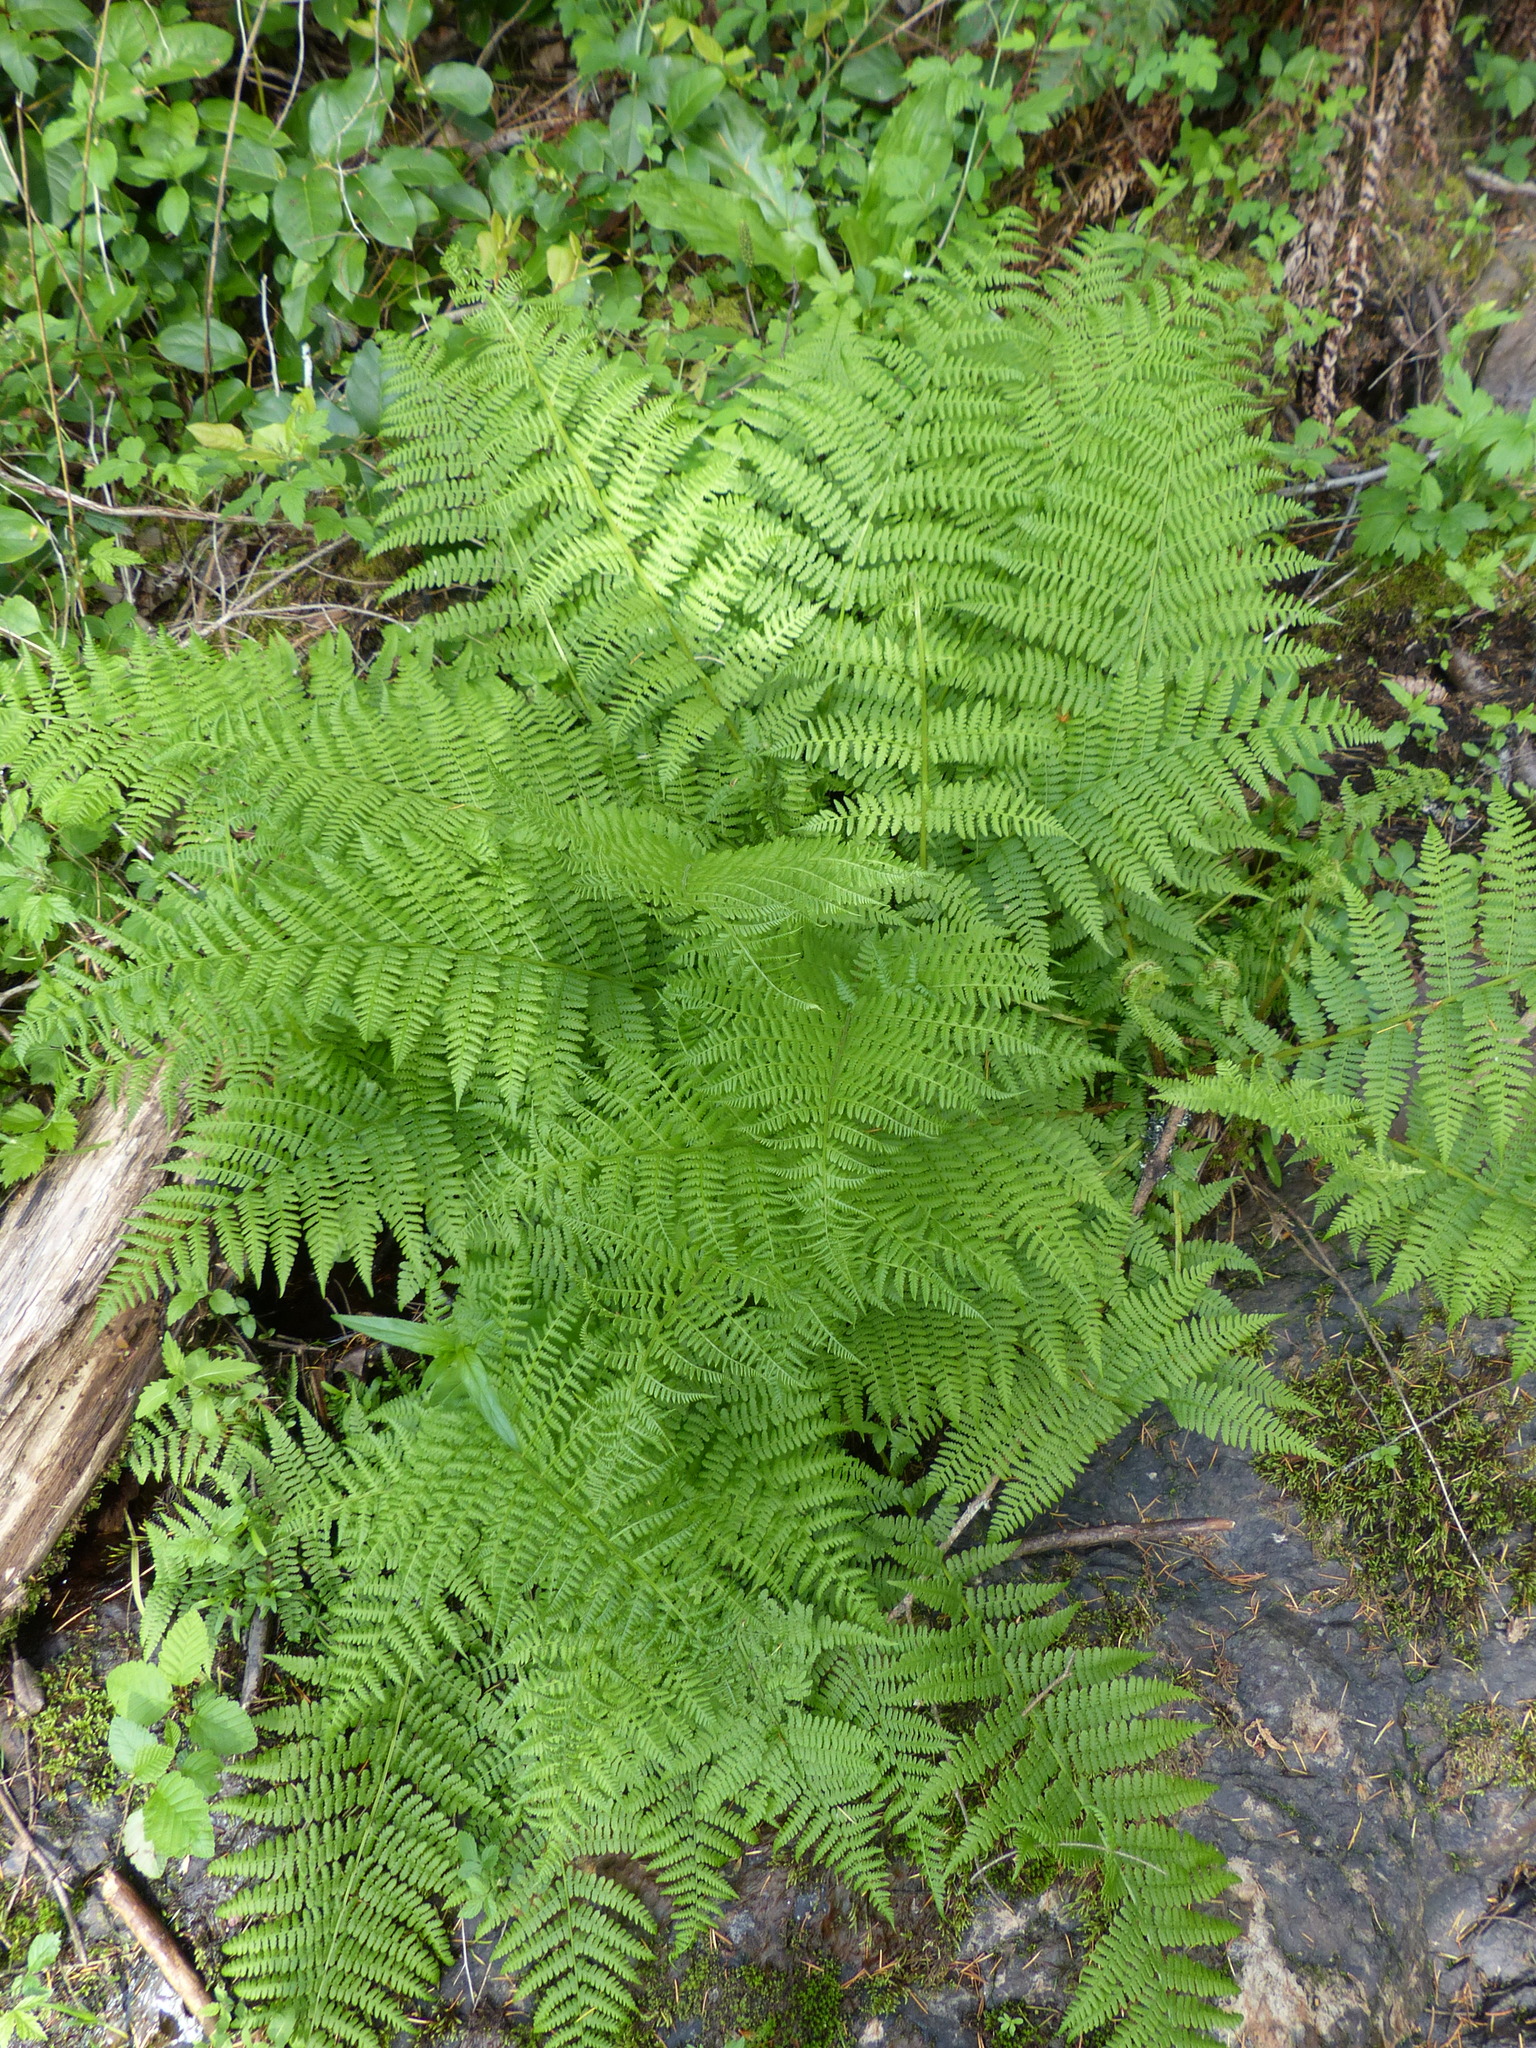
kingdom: Plantae
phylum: Tracheophyta
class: Polypodiopsida
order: Polypodiales
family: Athyriaceae
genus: Athyrium
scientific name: Athyrium filix-femina
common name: Lady fern
